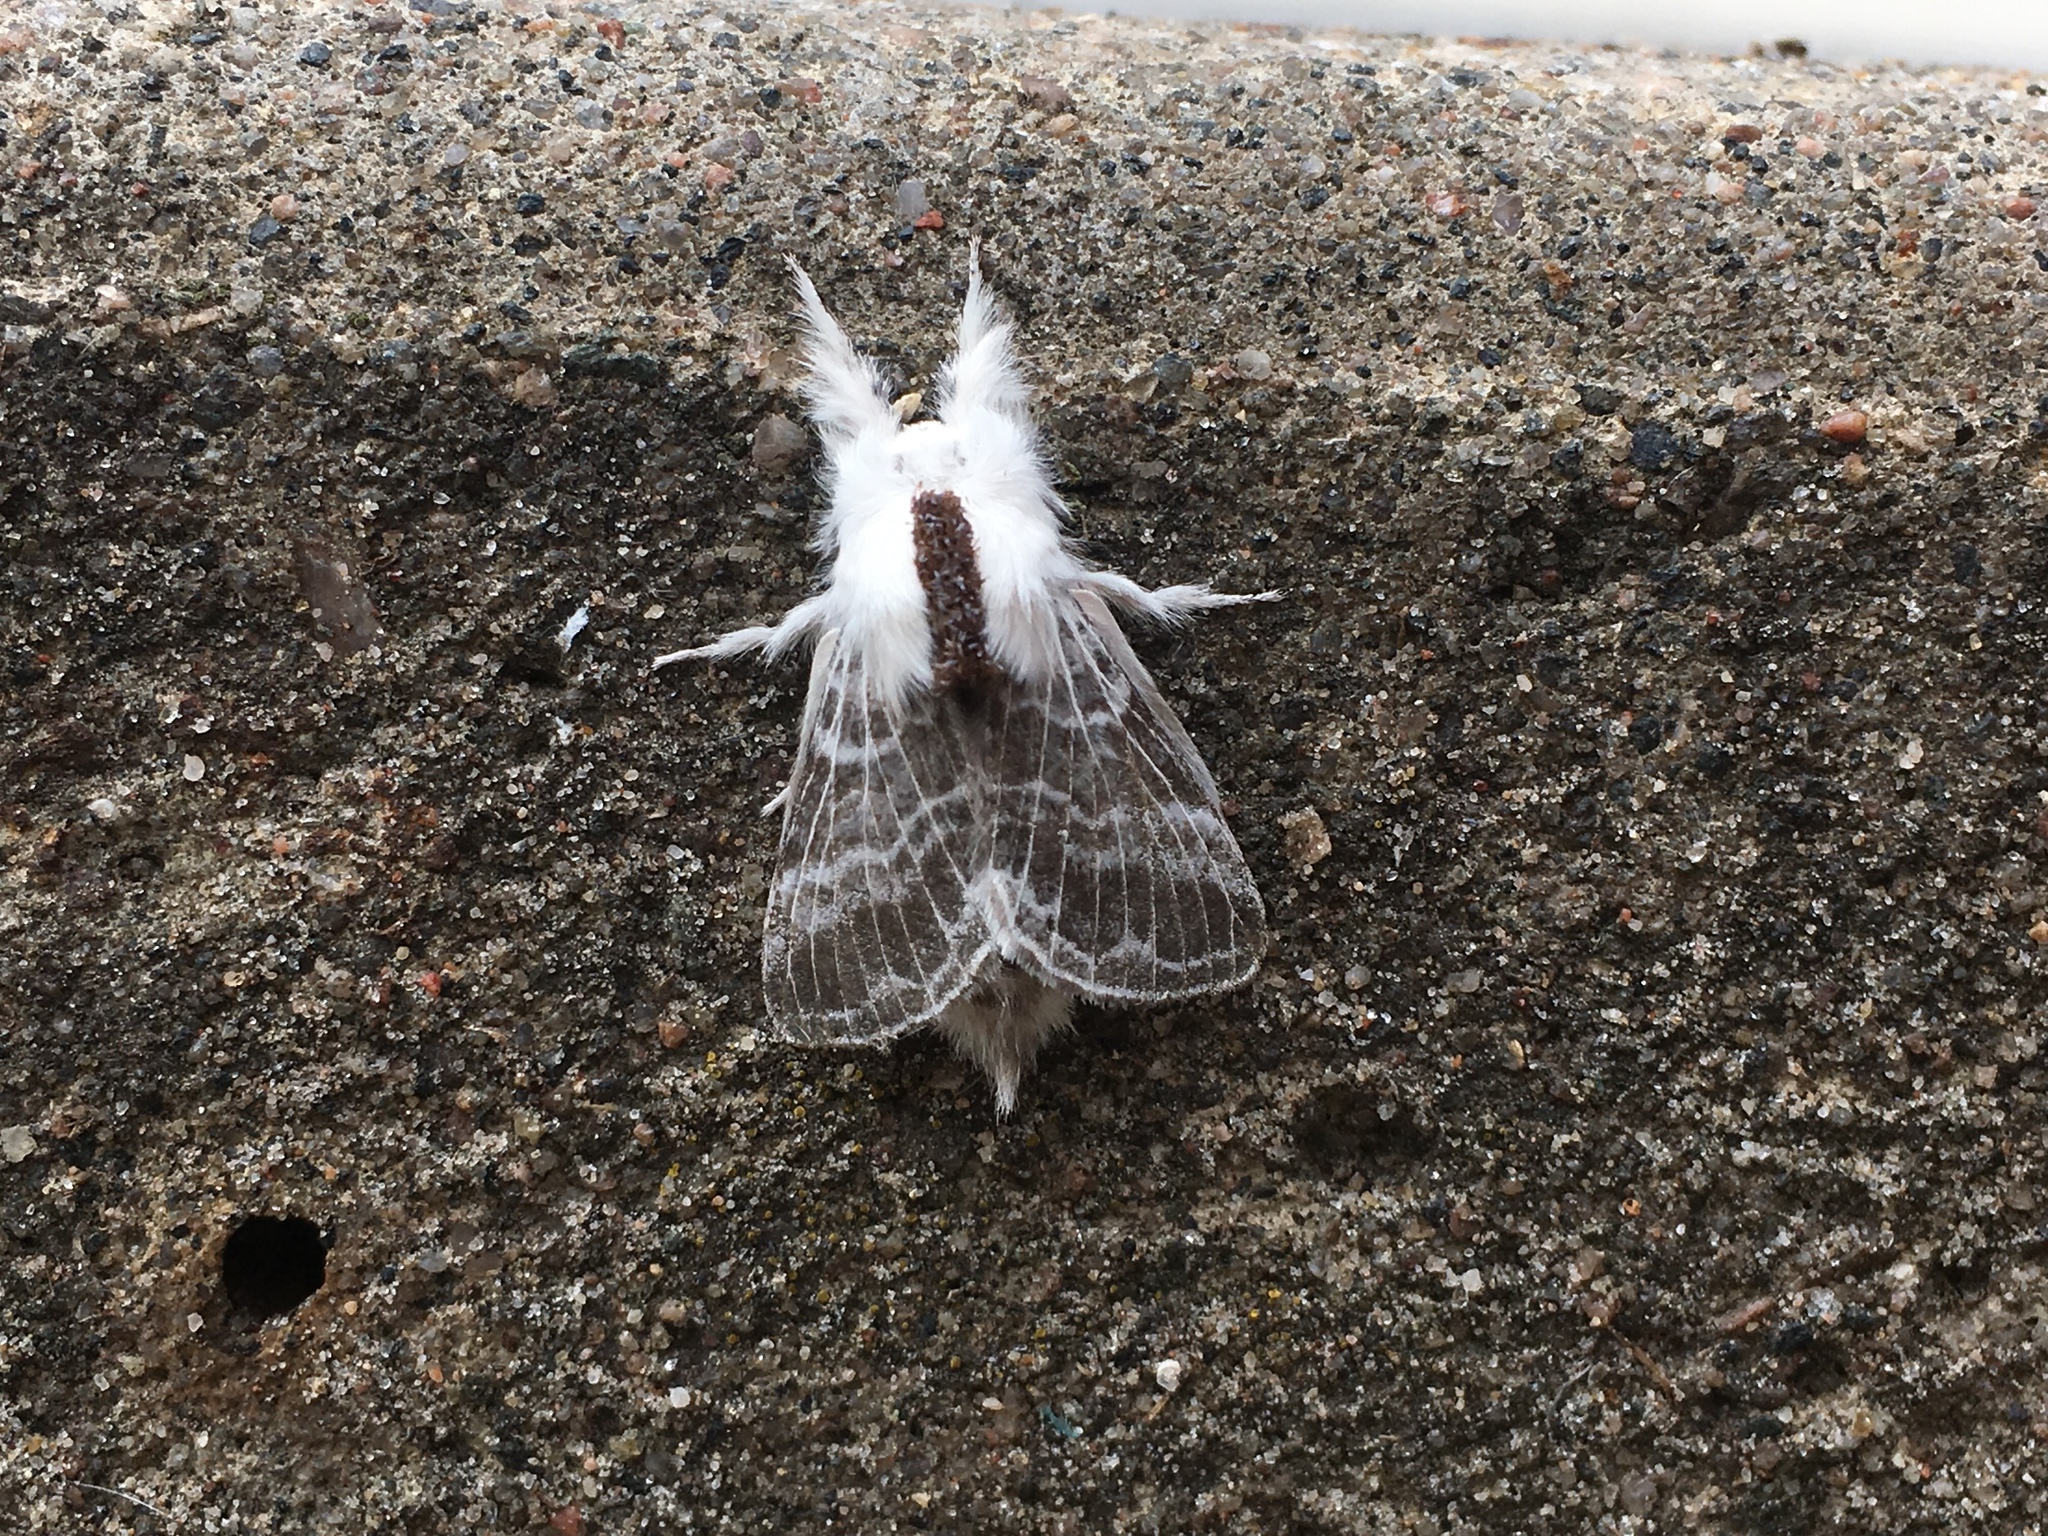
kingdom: Animalia
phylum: Arthropoda
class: Insecta
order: Lepidoptera
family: Lasiocampidae
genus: Tolype
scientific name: Tolype velleda
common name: Large tolype moth
